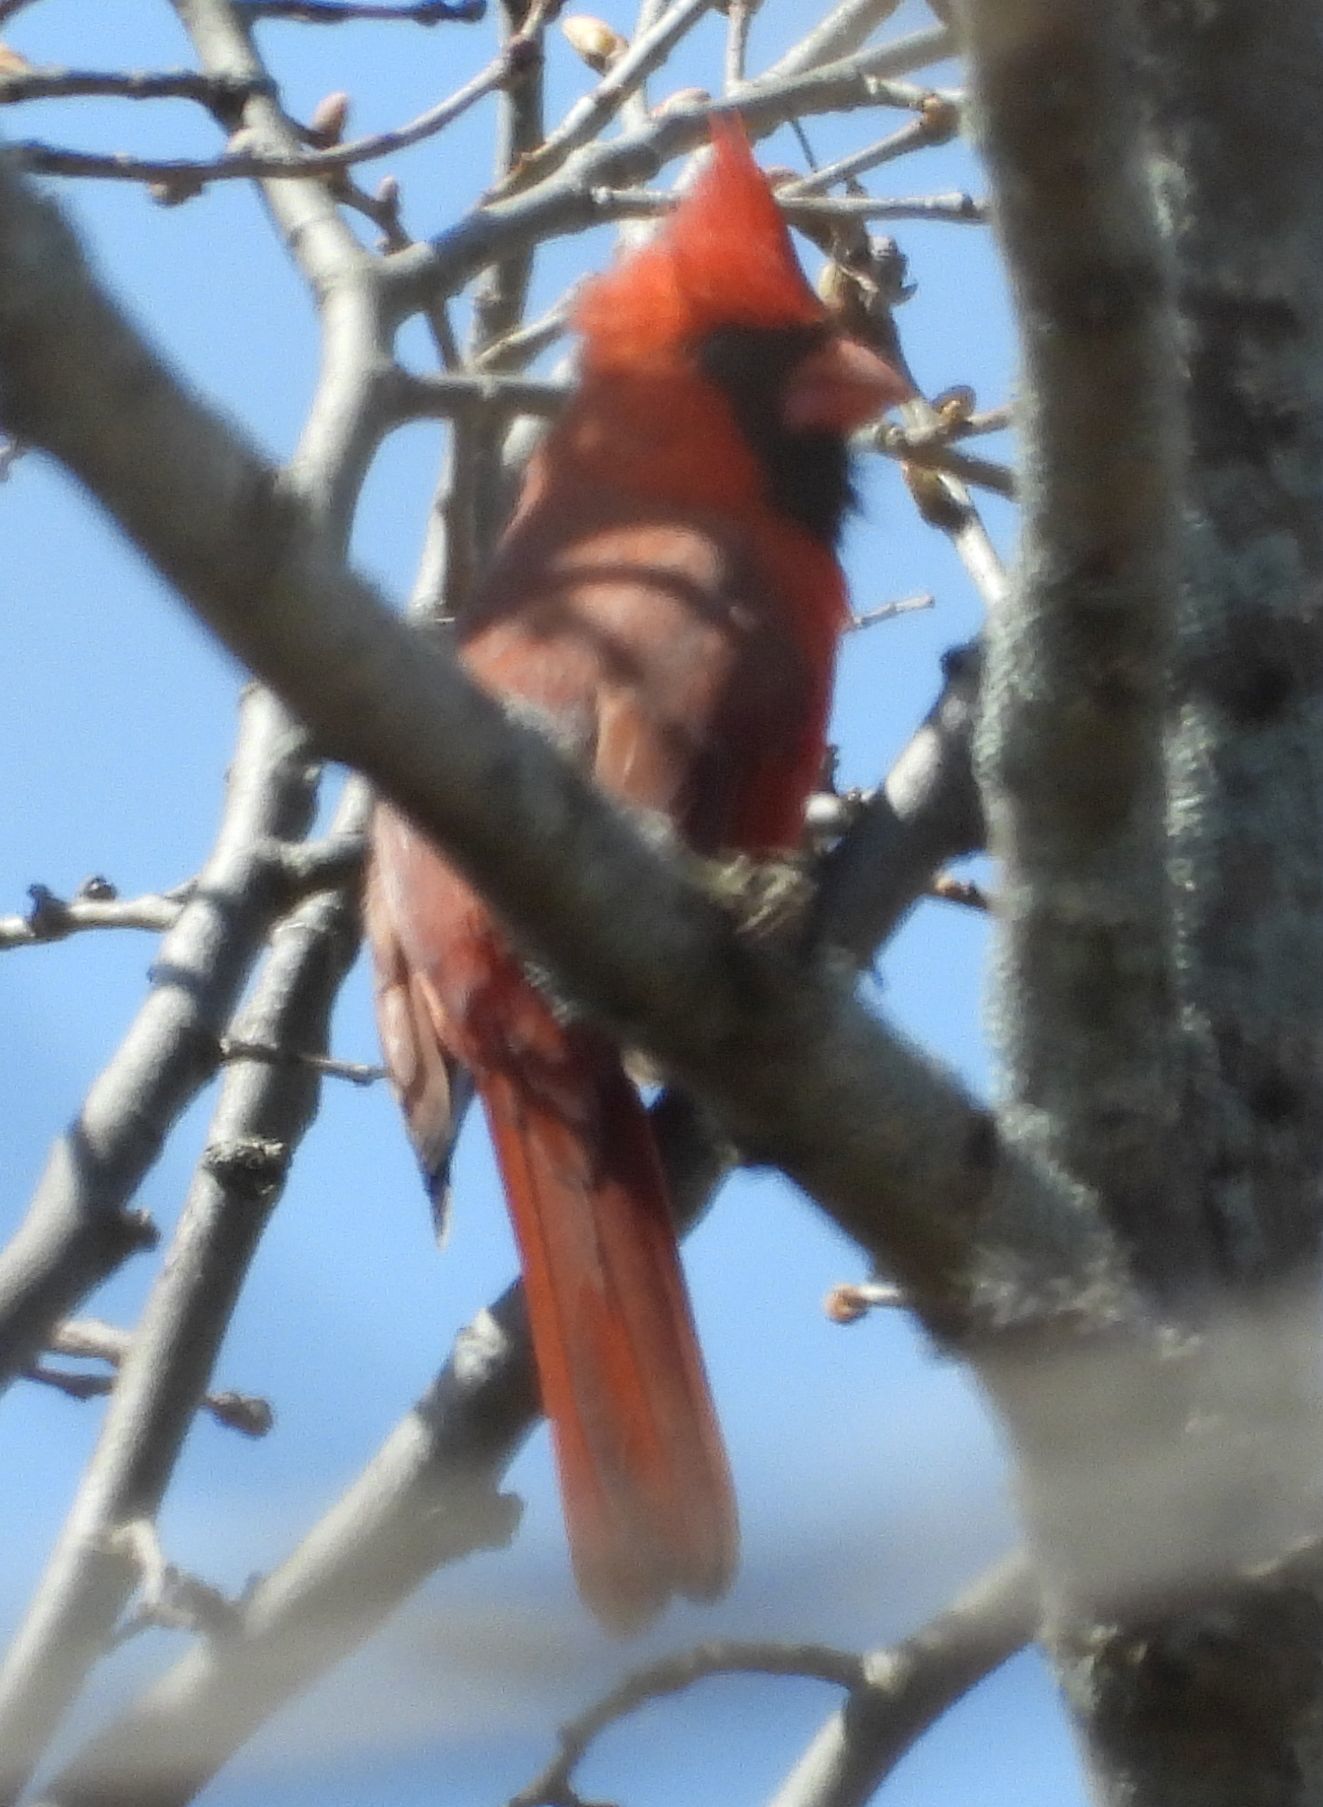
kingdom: Animalia
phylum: Chordata
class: Aves
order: Passeriformes
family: Cardinalidae
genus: Cardinalis
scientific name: Cardinalis cardinalis
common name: Northern cardinal
